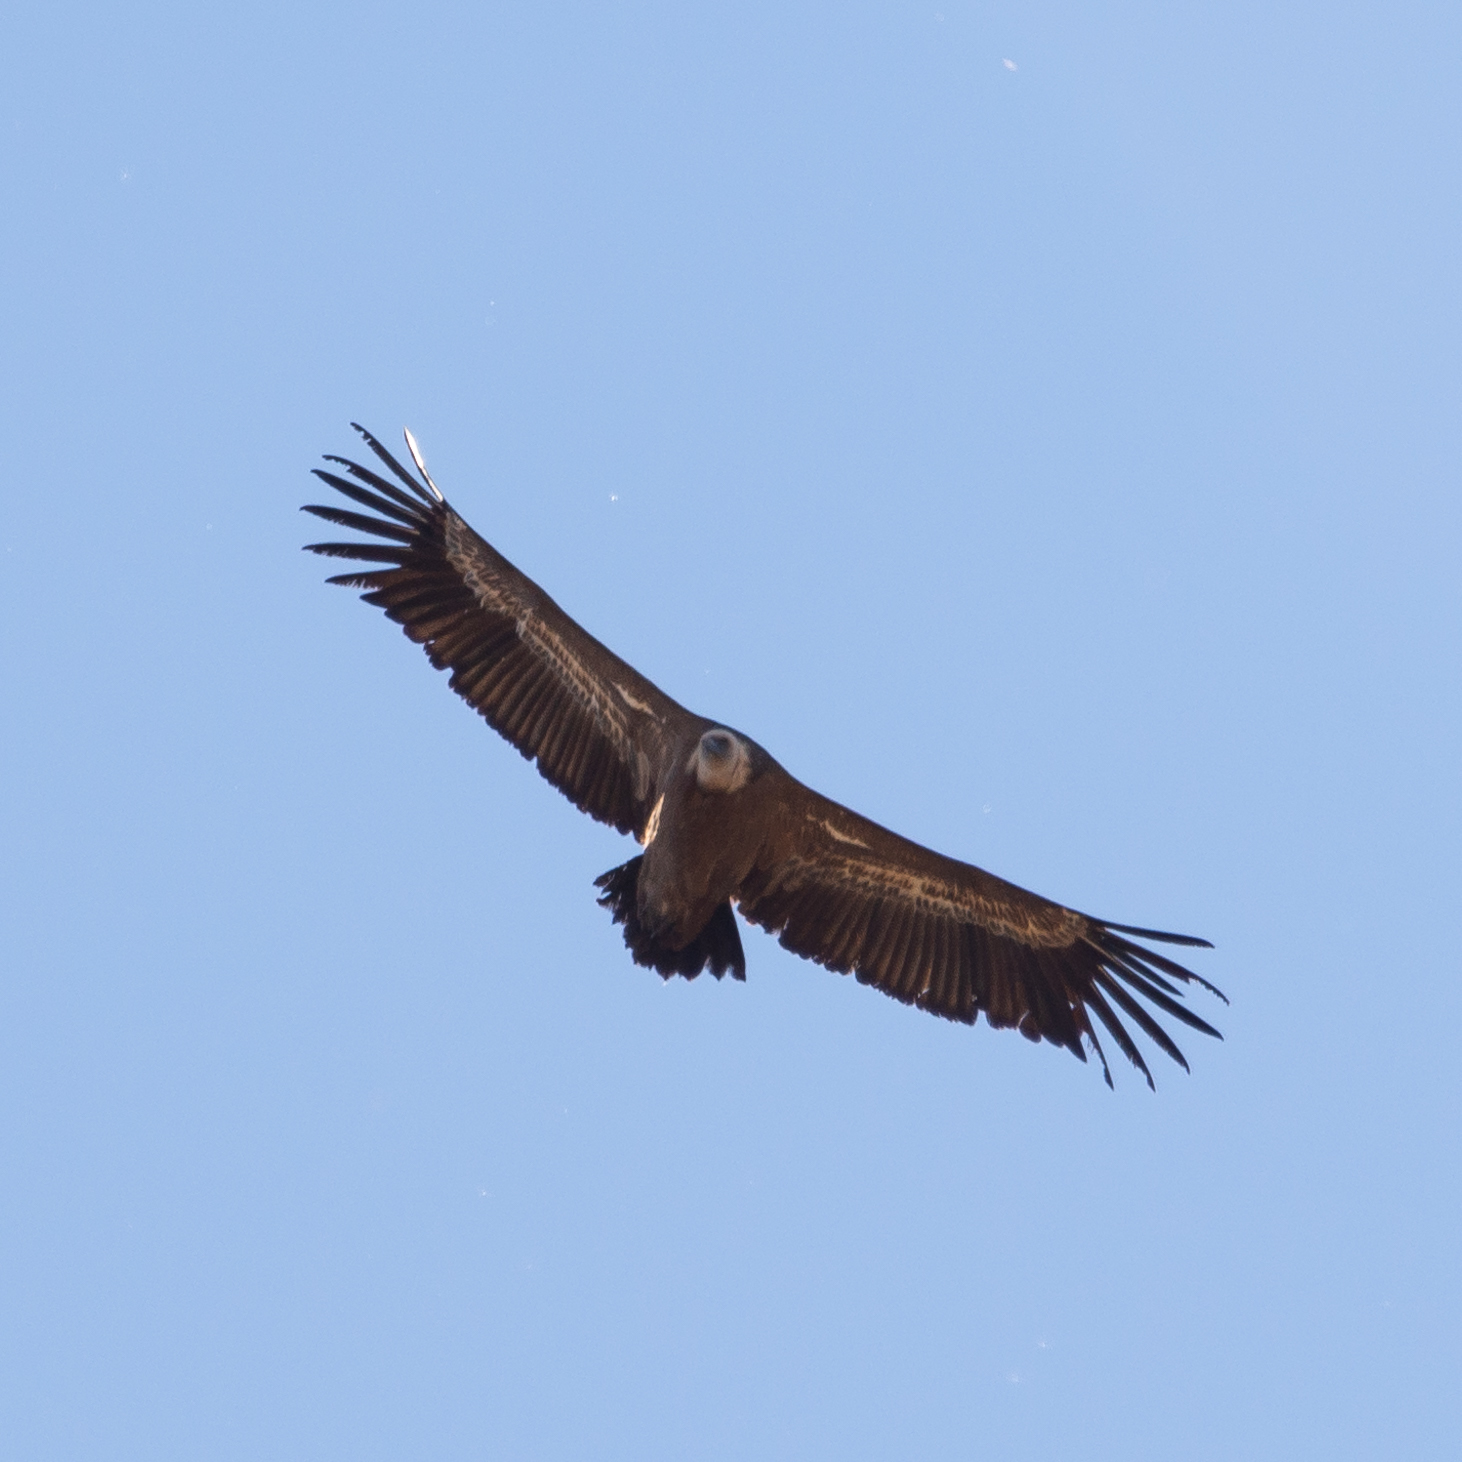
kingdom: Animalia
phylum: Chordata
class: Aves
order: Accipitriformes
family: Accipitridae
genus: Gyps
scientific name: Gyps fulvus
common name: Griffon vulture
